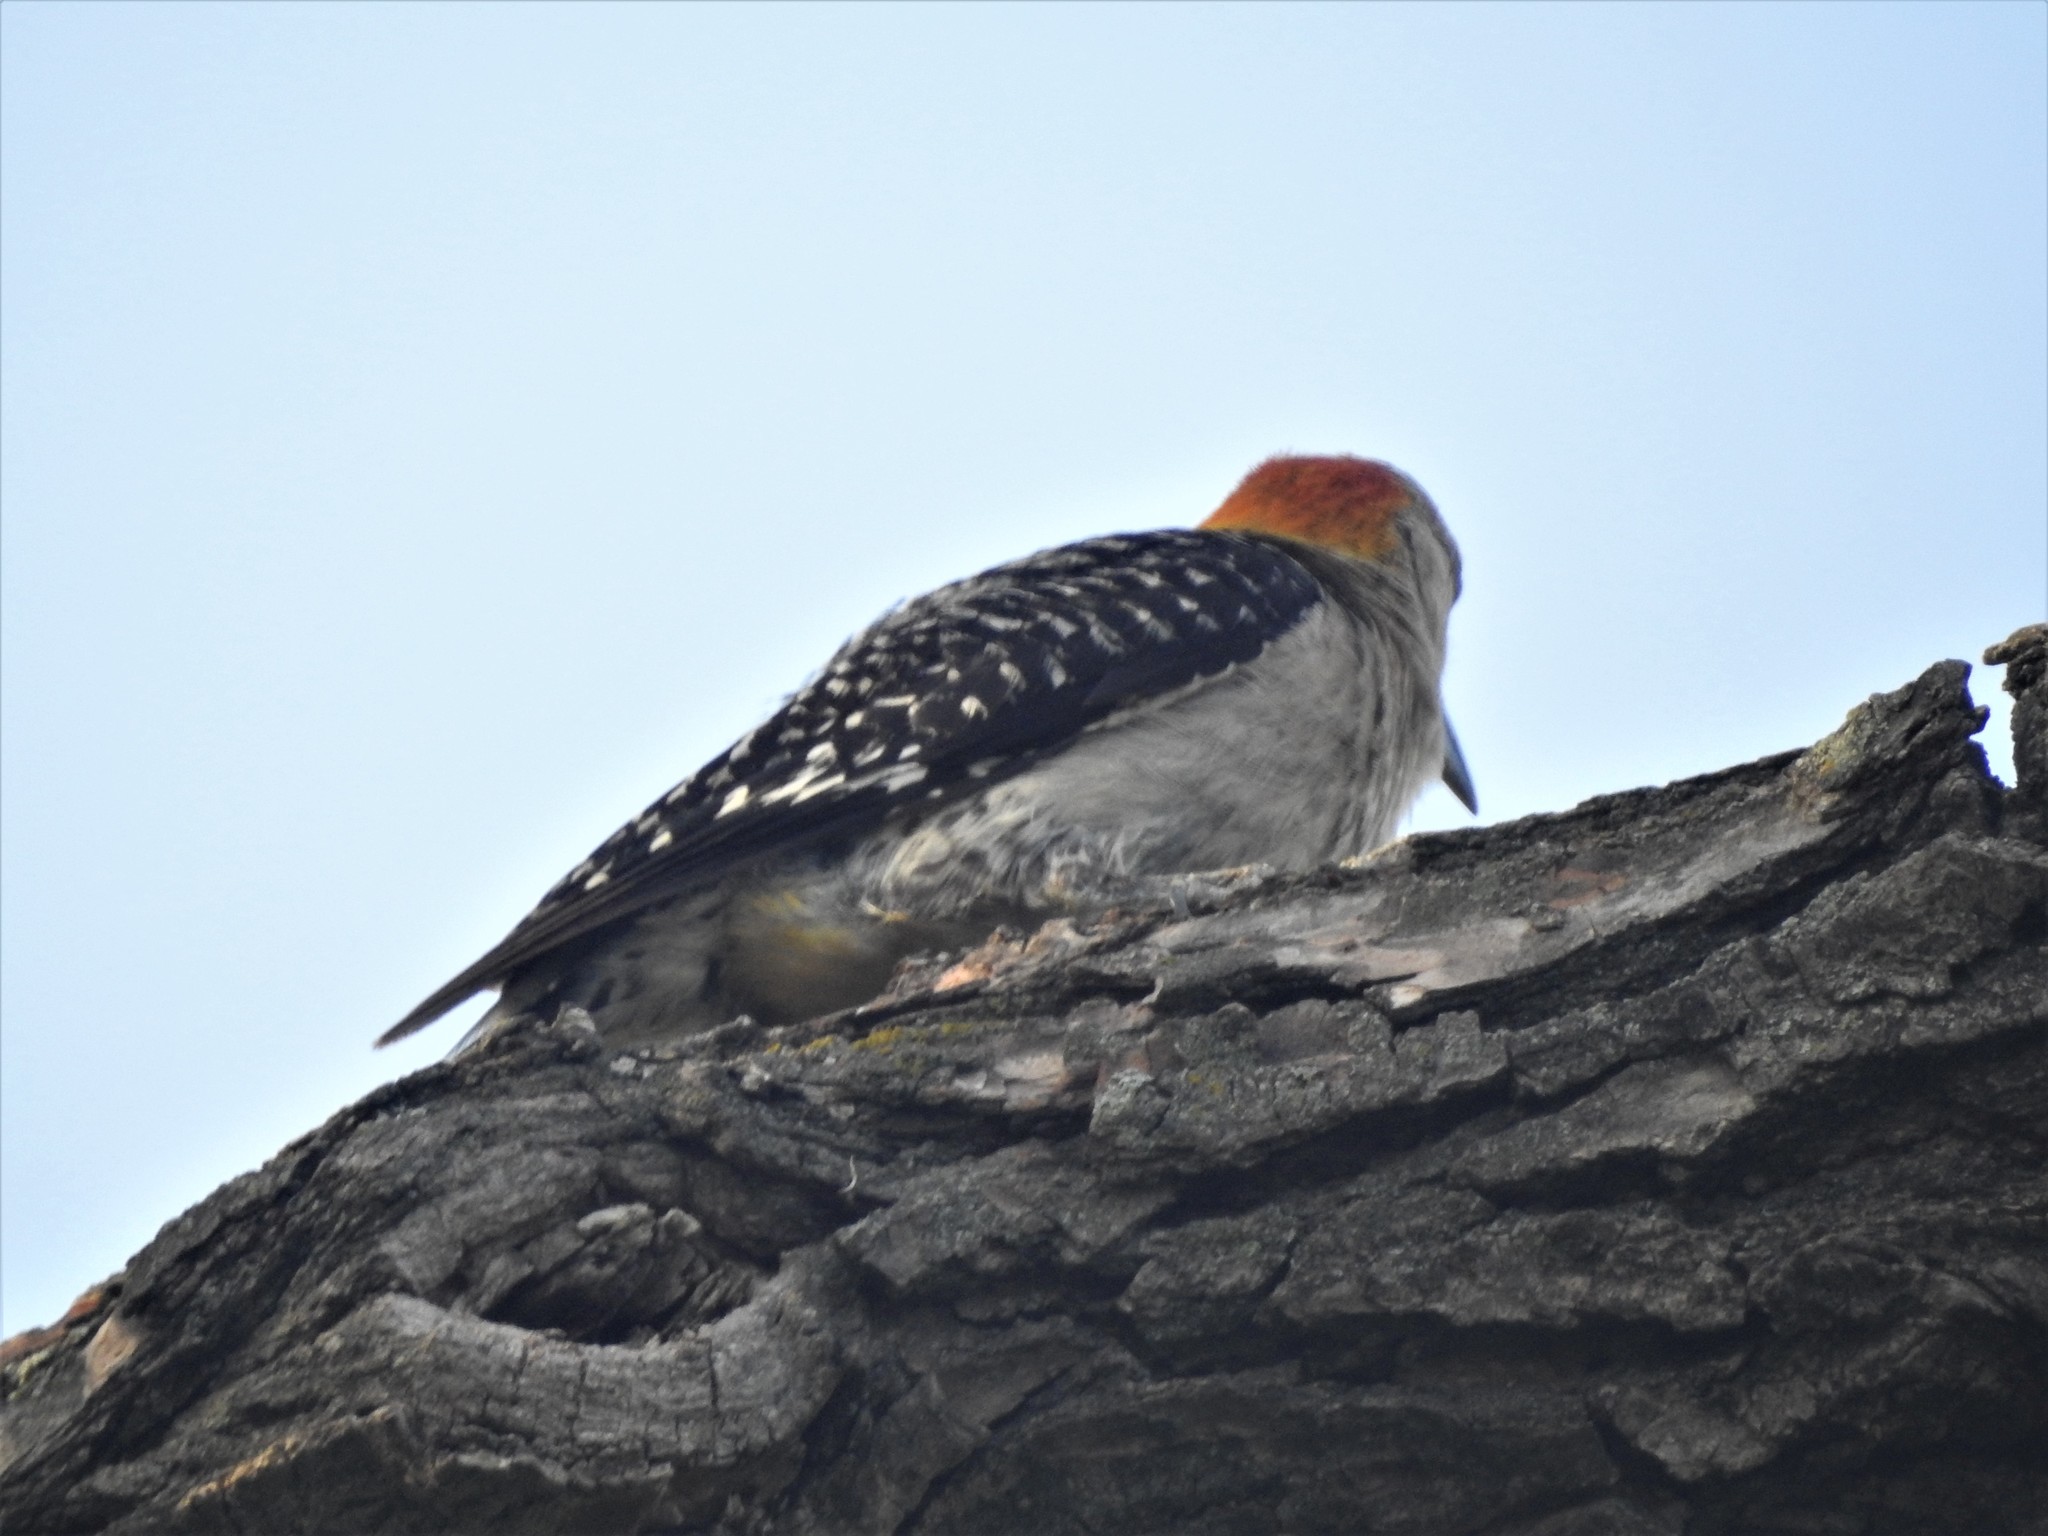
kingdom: Animalia
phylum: Chordata
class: Aves
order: Piciformes
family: Picidae
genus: Melanerpes
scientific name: Melanerpes aurifrons
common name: Golden-fronted woodpecker
